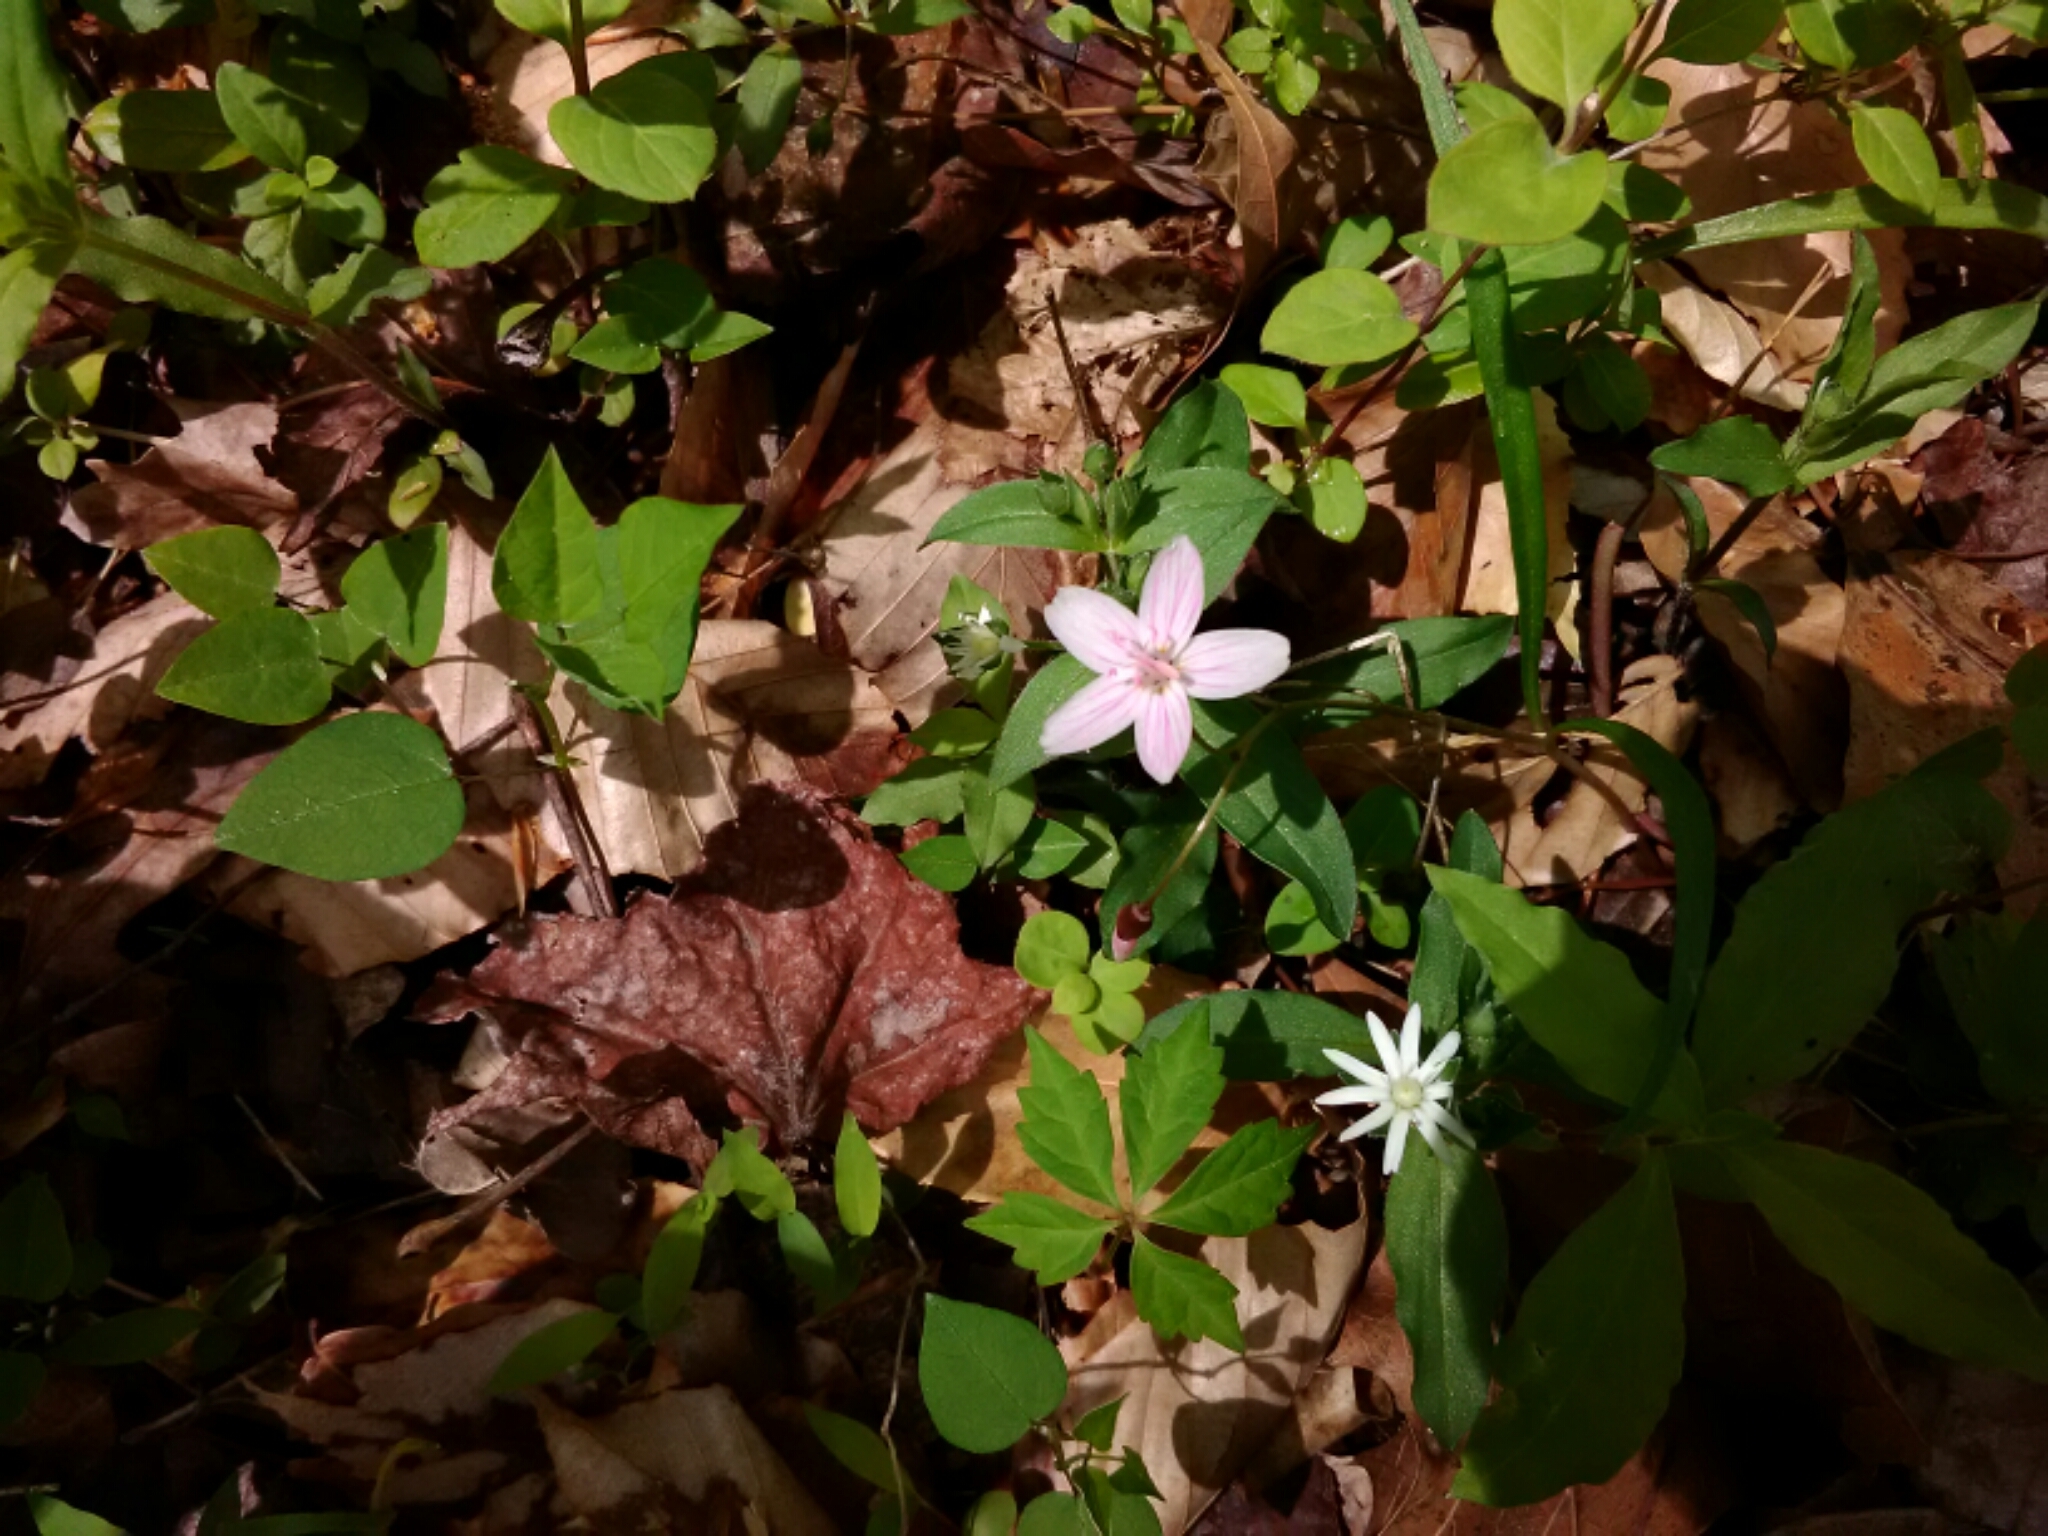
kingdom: Plantae
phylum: Tracheophyta
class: Magnoliopsida
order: Caryophyllales
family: Montiaceae
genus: Claytonia
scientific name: Claytonia virginica
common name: Virginia springbeauty
